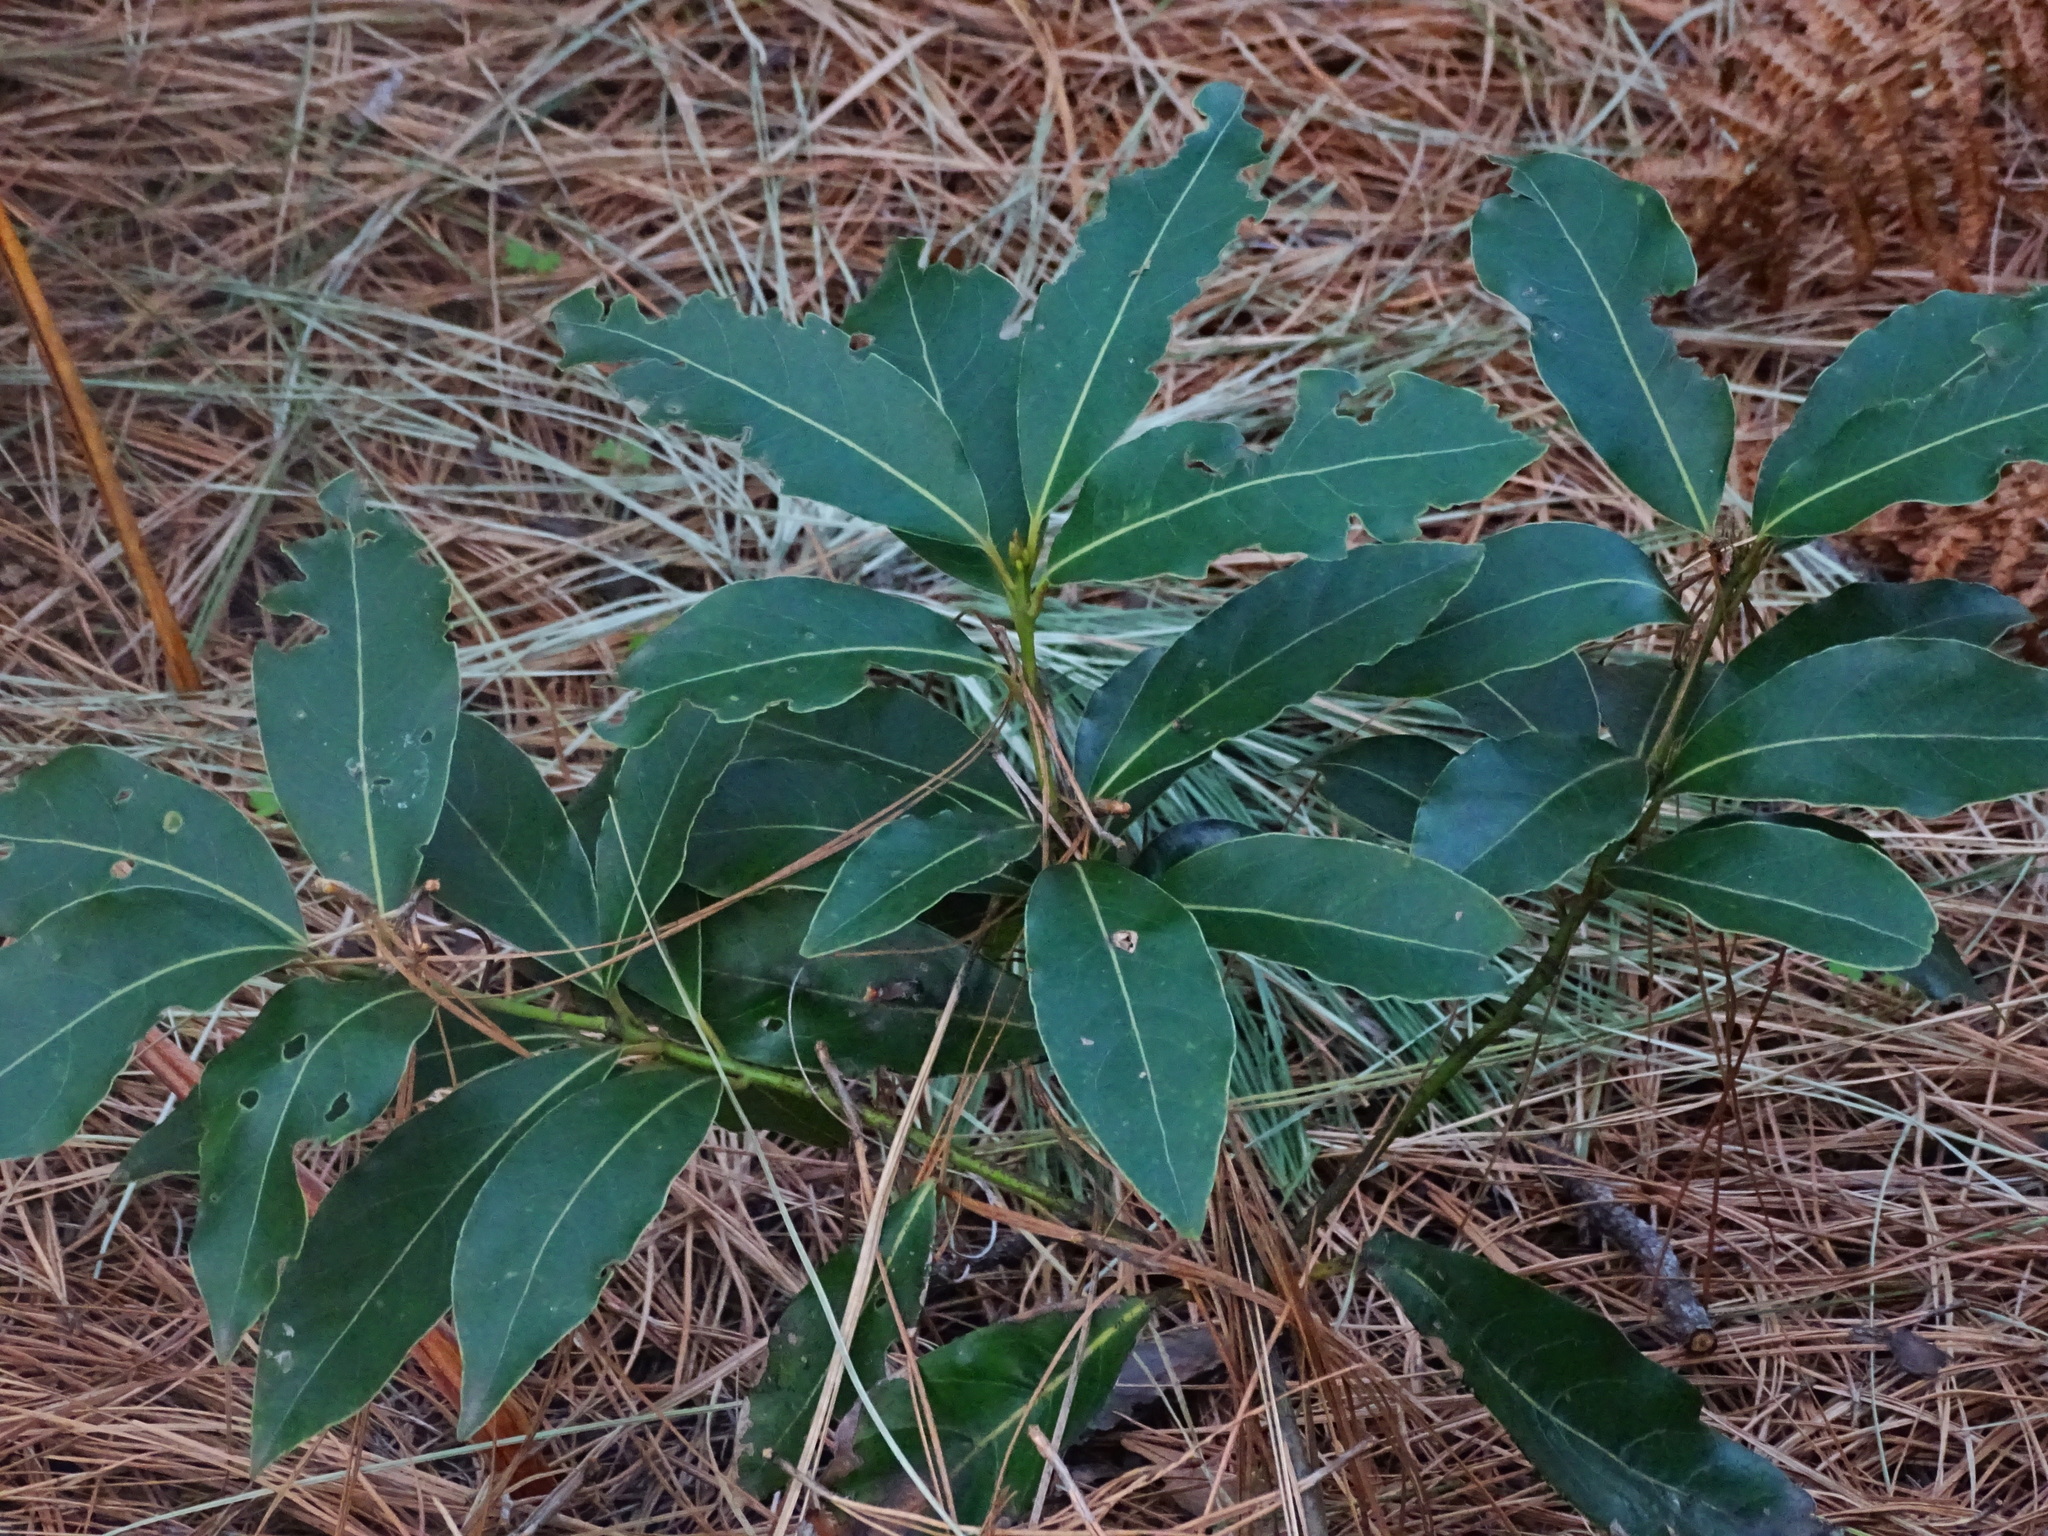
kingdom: Plantae
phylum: Tracheophyta
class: Magnoliopsida
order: Laurales
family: Lauraceae
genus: Laurus
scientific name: Laurus novocanariensis
